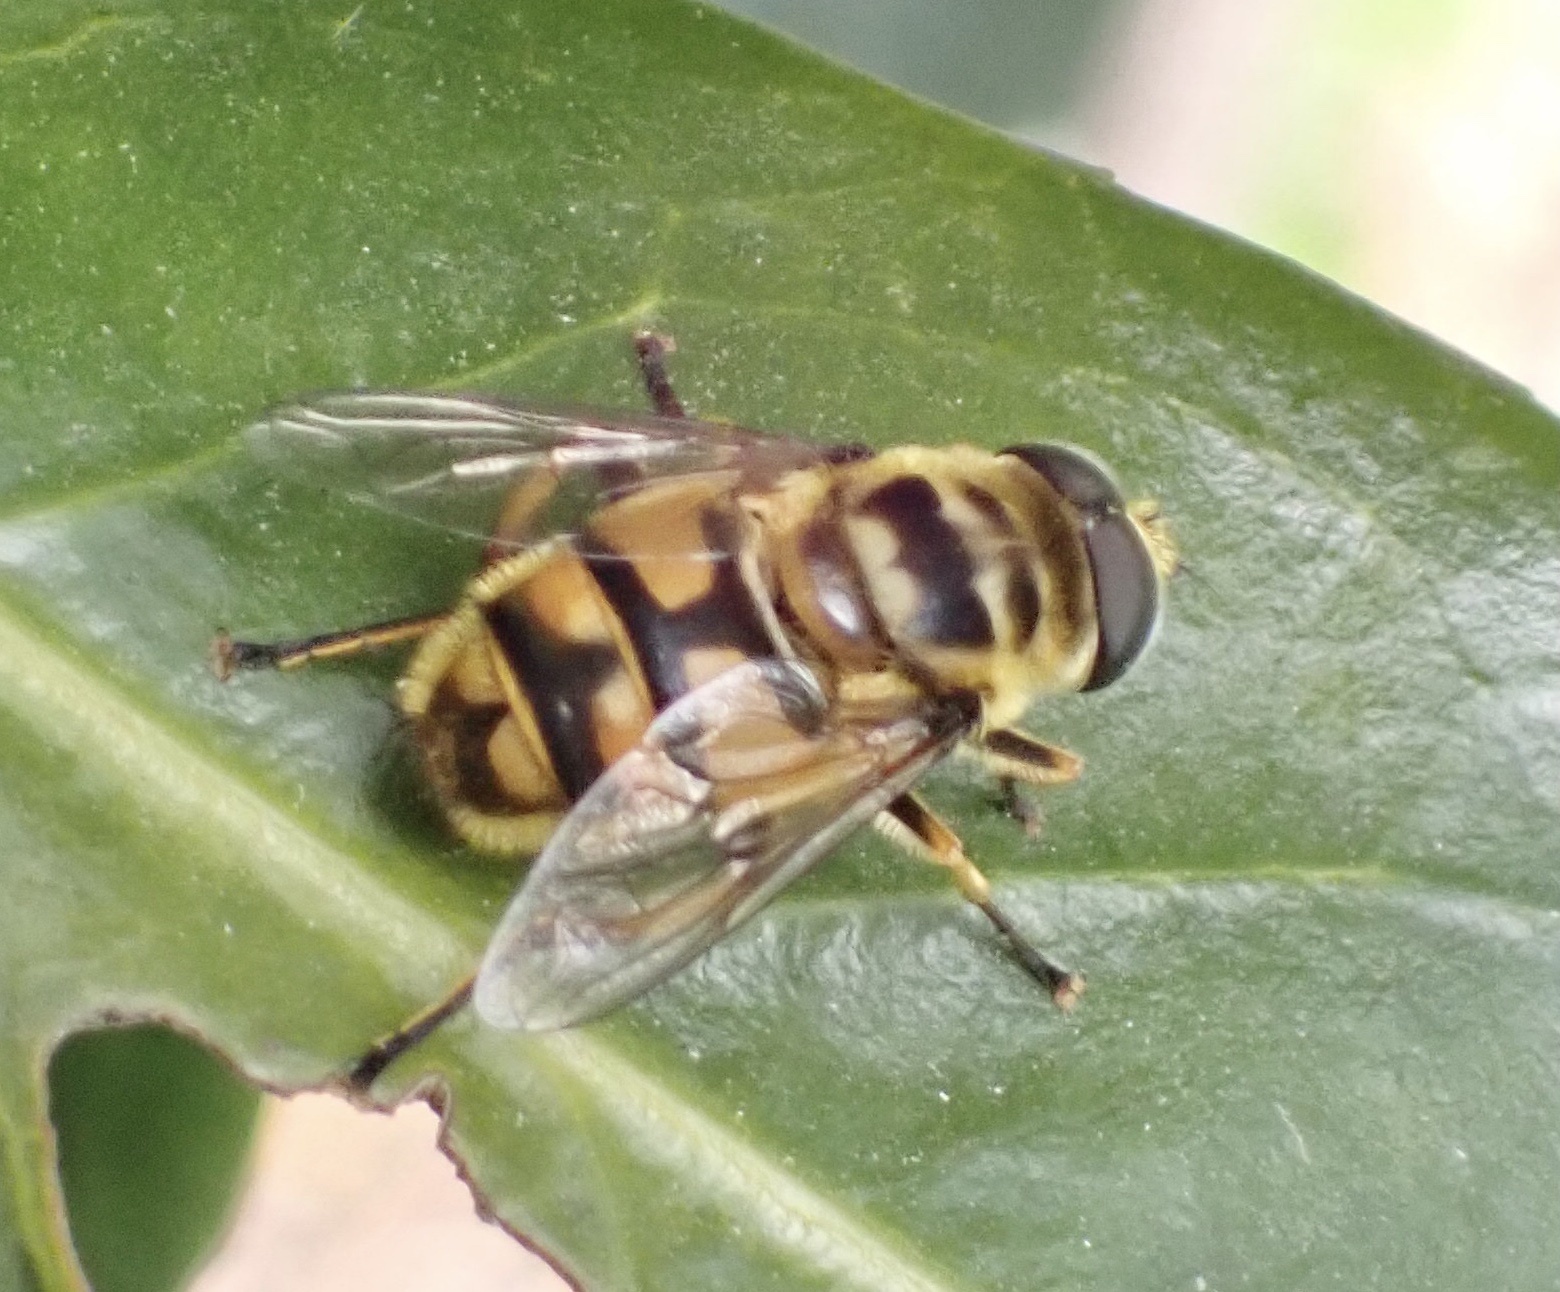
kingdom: Animalia
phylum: Arthropoda
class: Insecta
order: Diptera
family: Syrphidae
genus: Myathropa
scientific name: Myathropa florea
